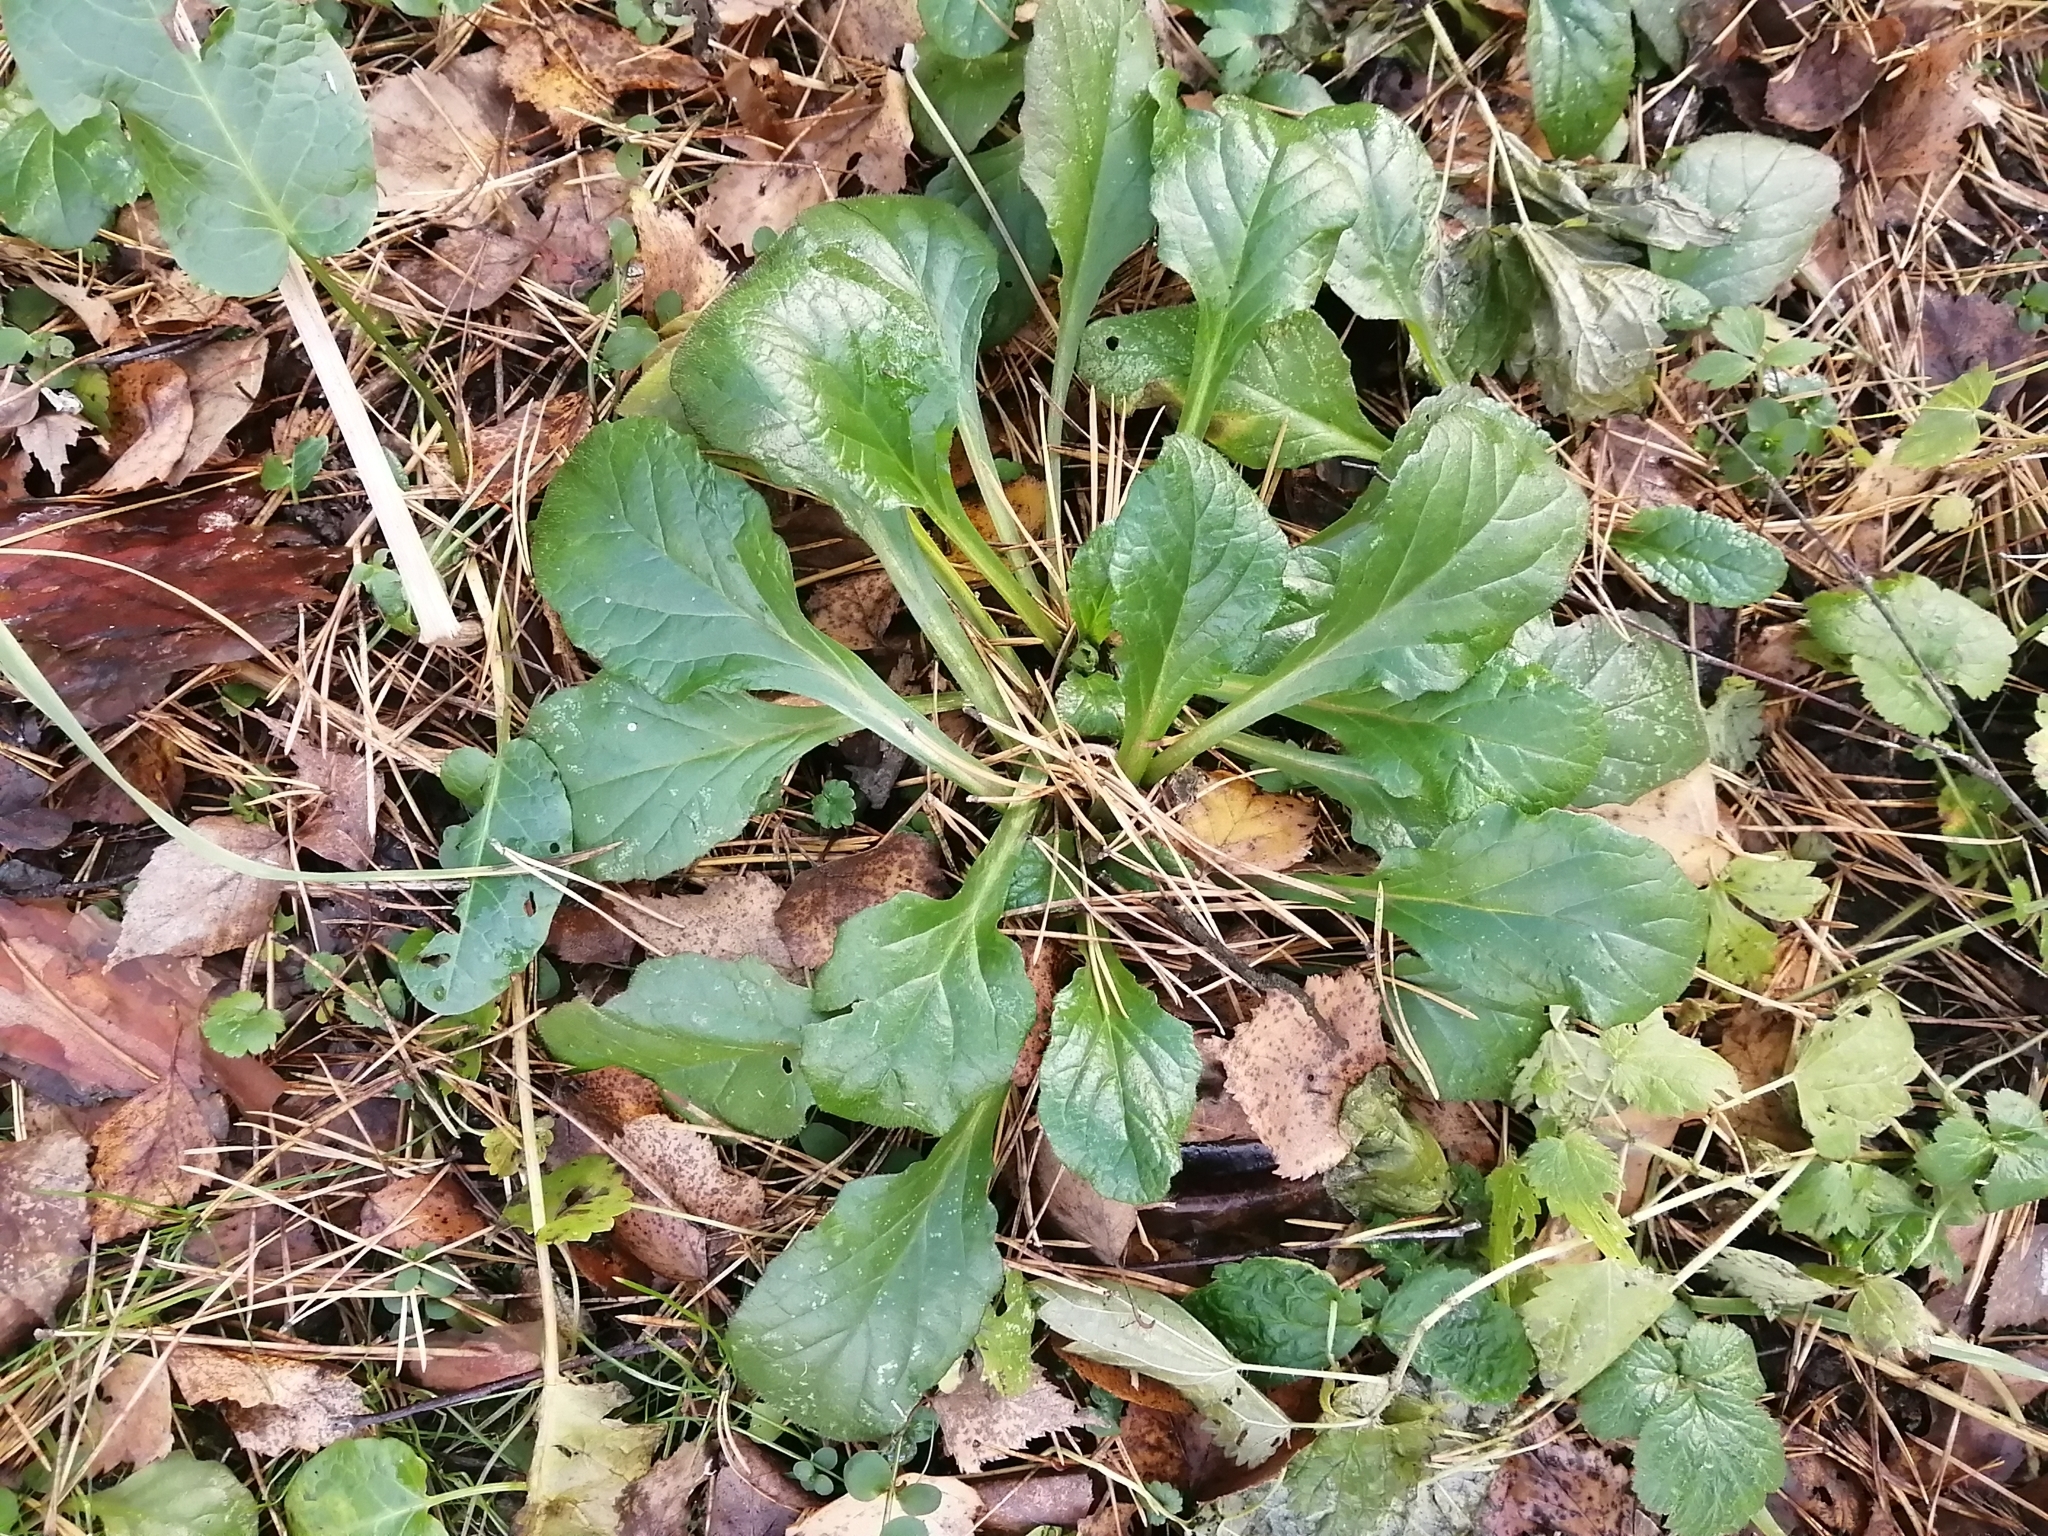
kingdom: Plantae
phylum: Tracheophyta
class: Magnoliopsida
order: Lamiales
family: Lamiaceae
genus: Ajuga
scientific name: Ajuga reptans
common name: Bugle
